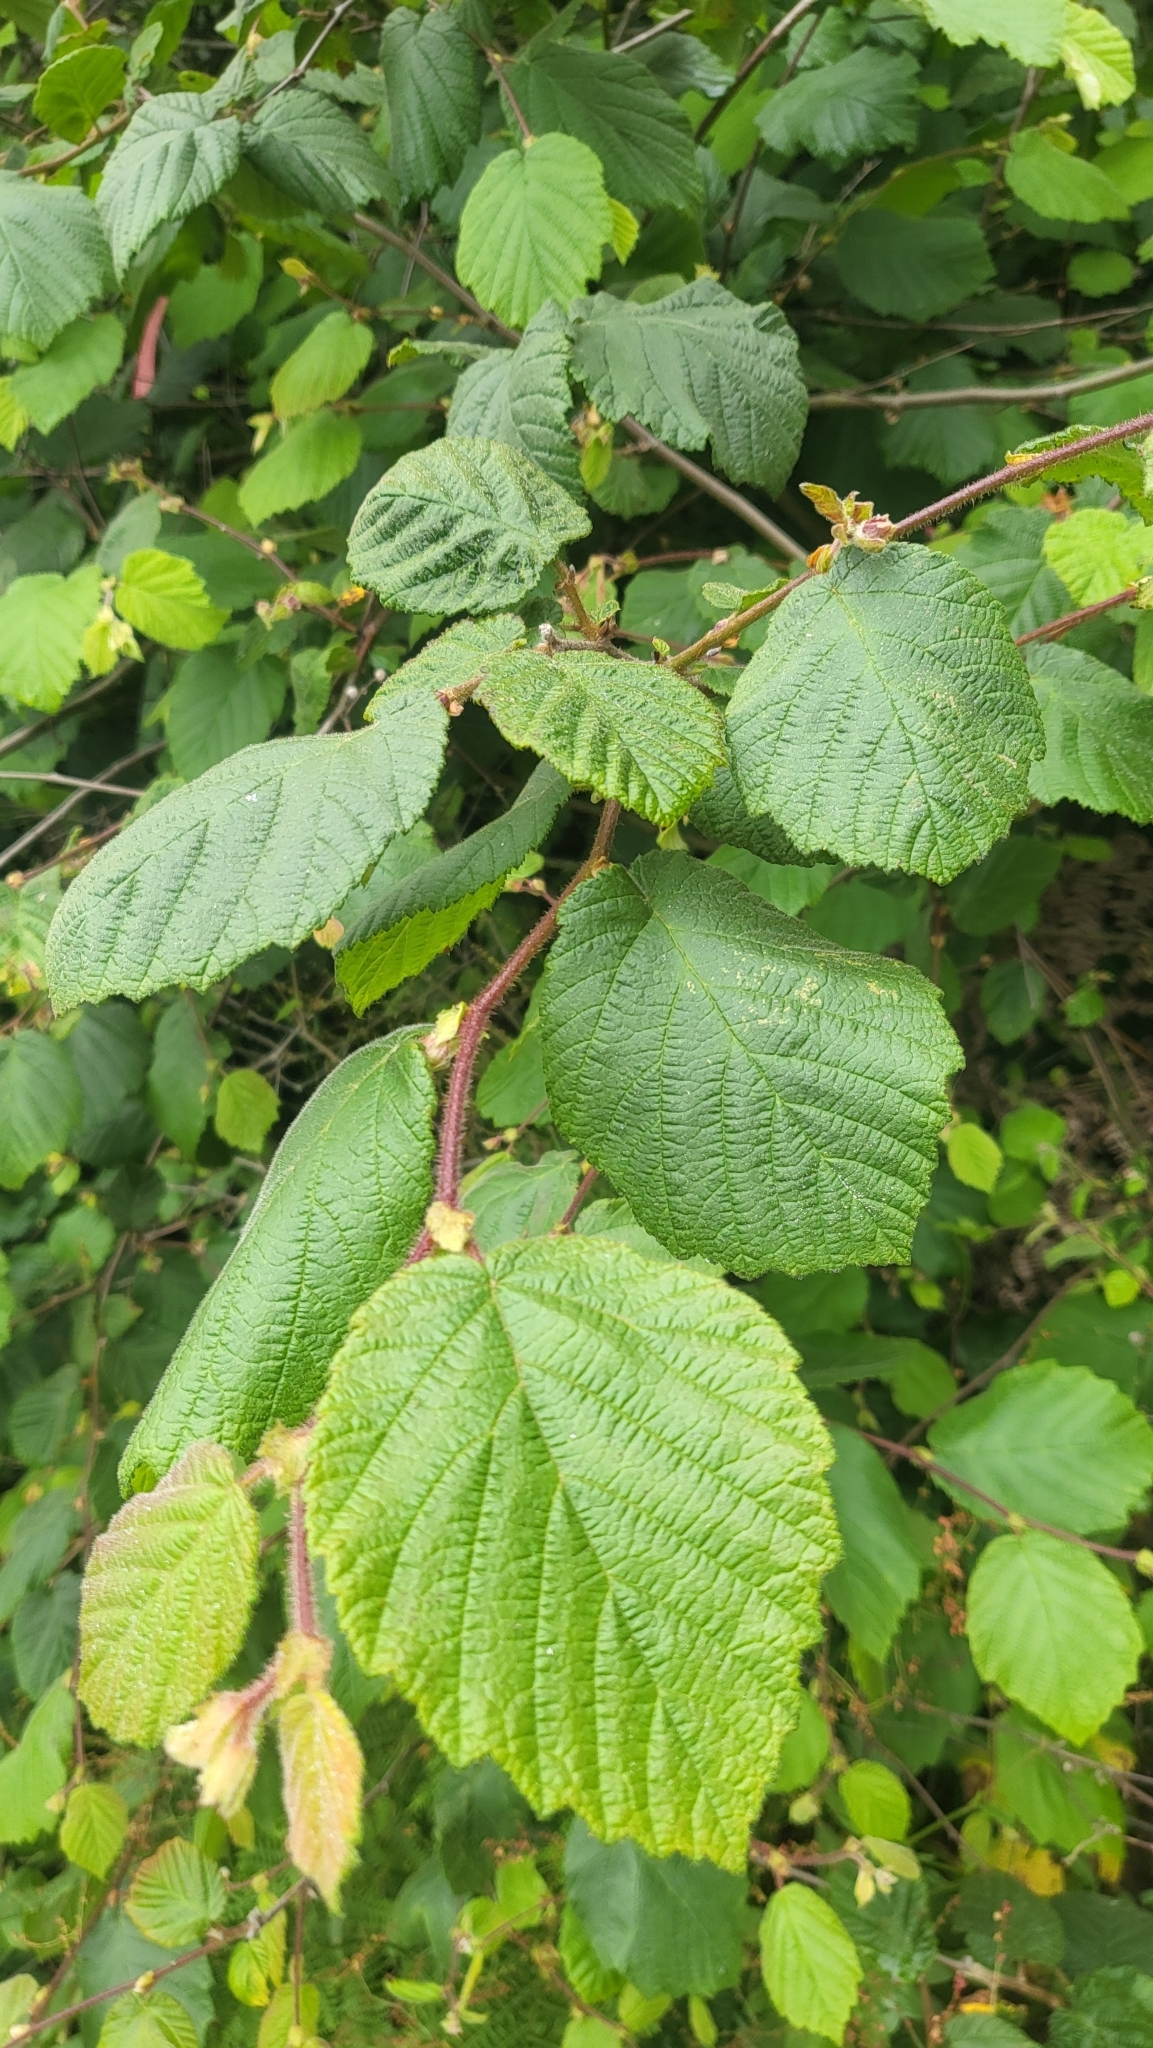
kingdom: Plantae
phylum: Tracheophyta
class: Magnoliopsida
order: Fagales
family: Betulaceae
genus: Corylus
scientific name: Corylus cornuta
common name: Beaked hazel
